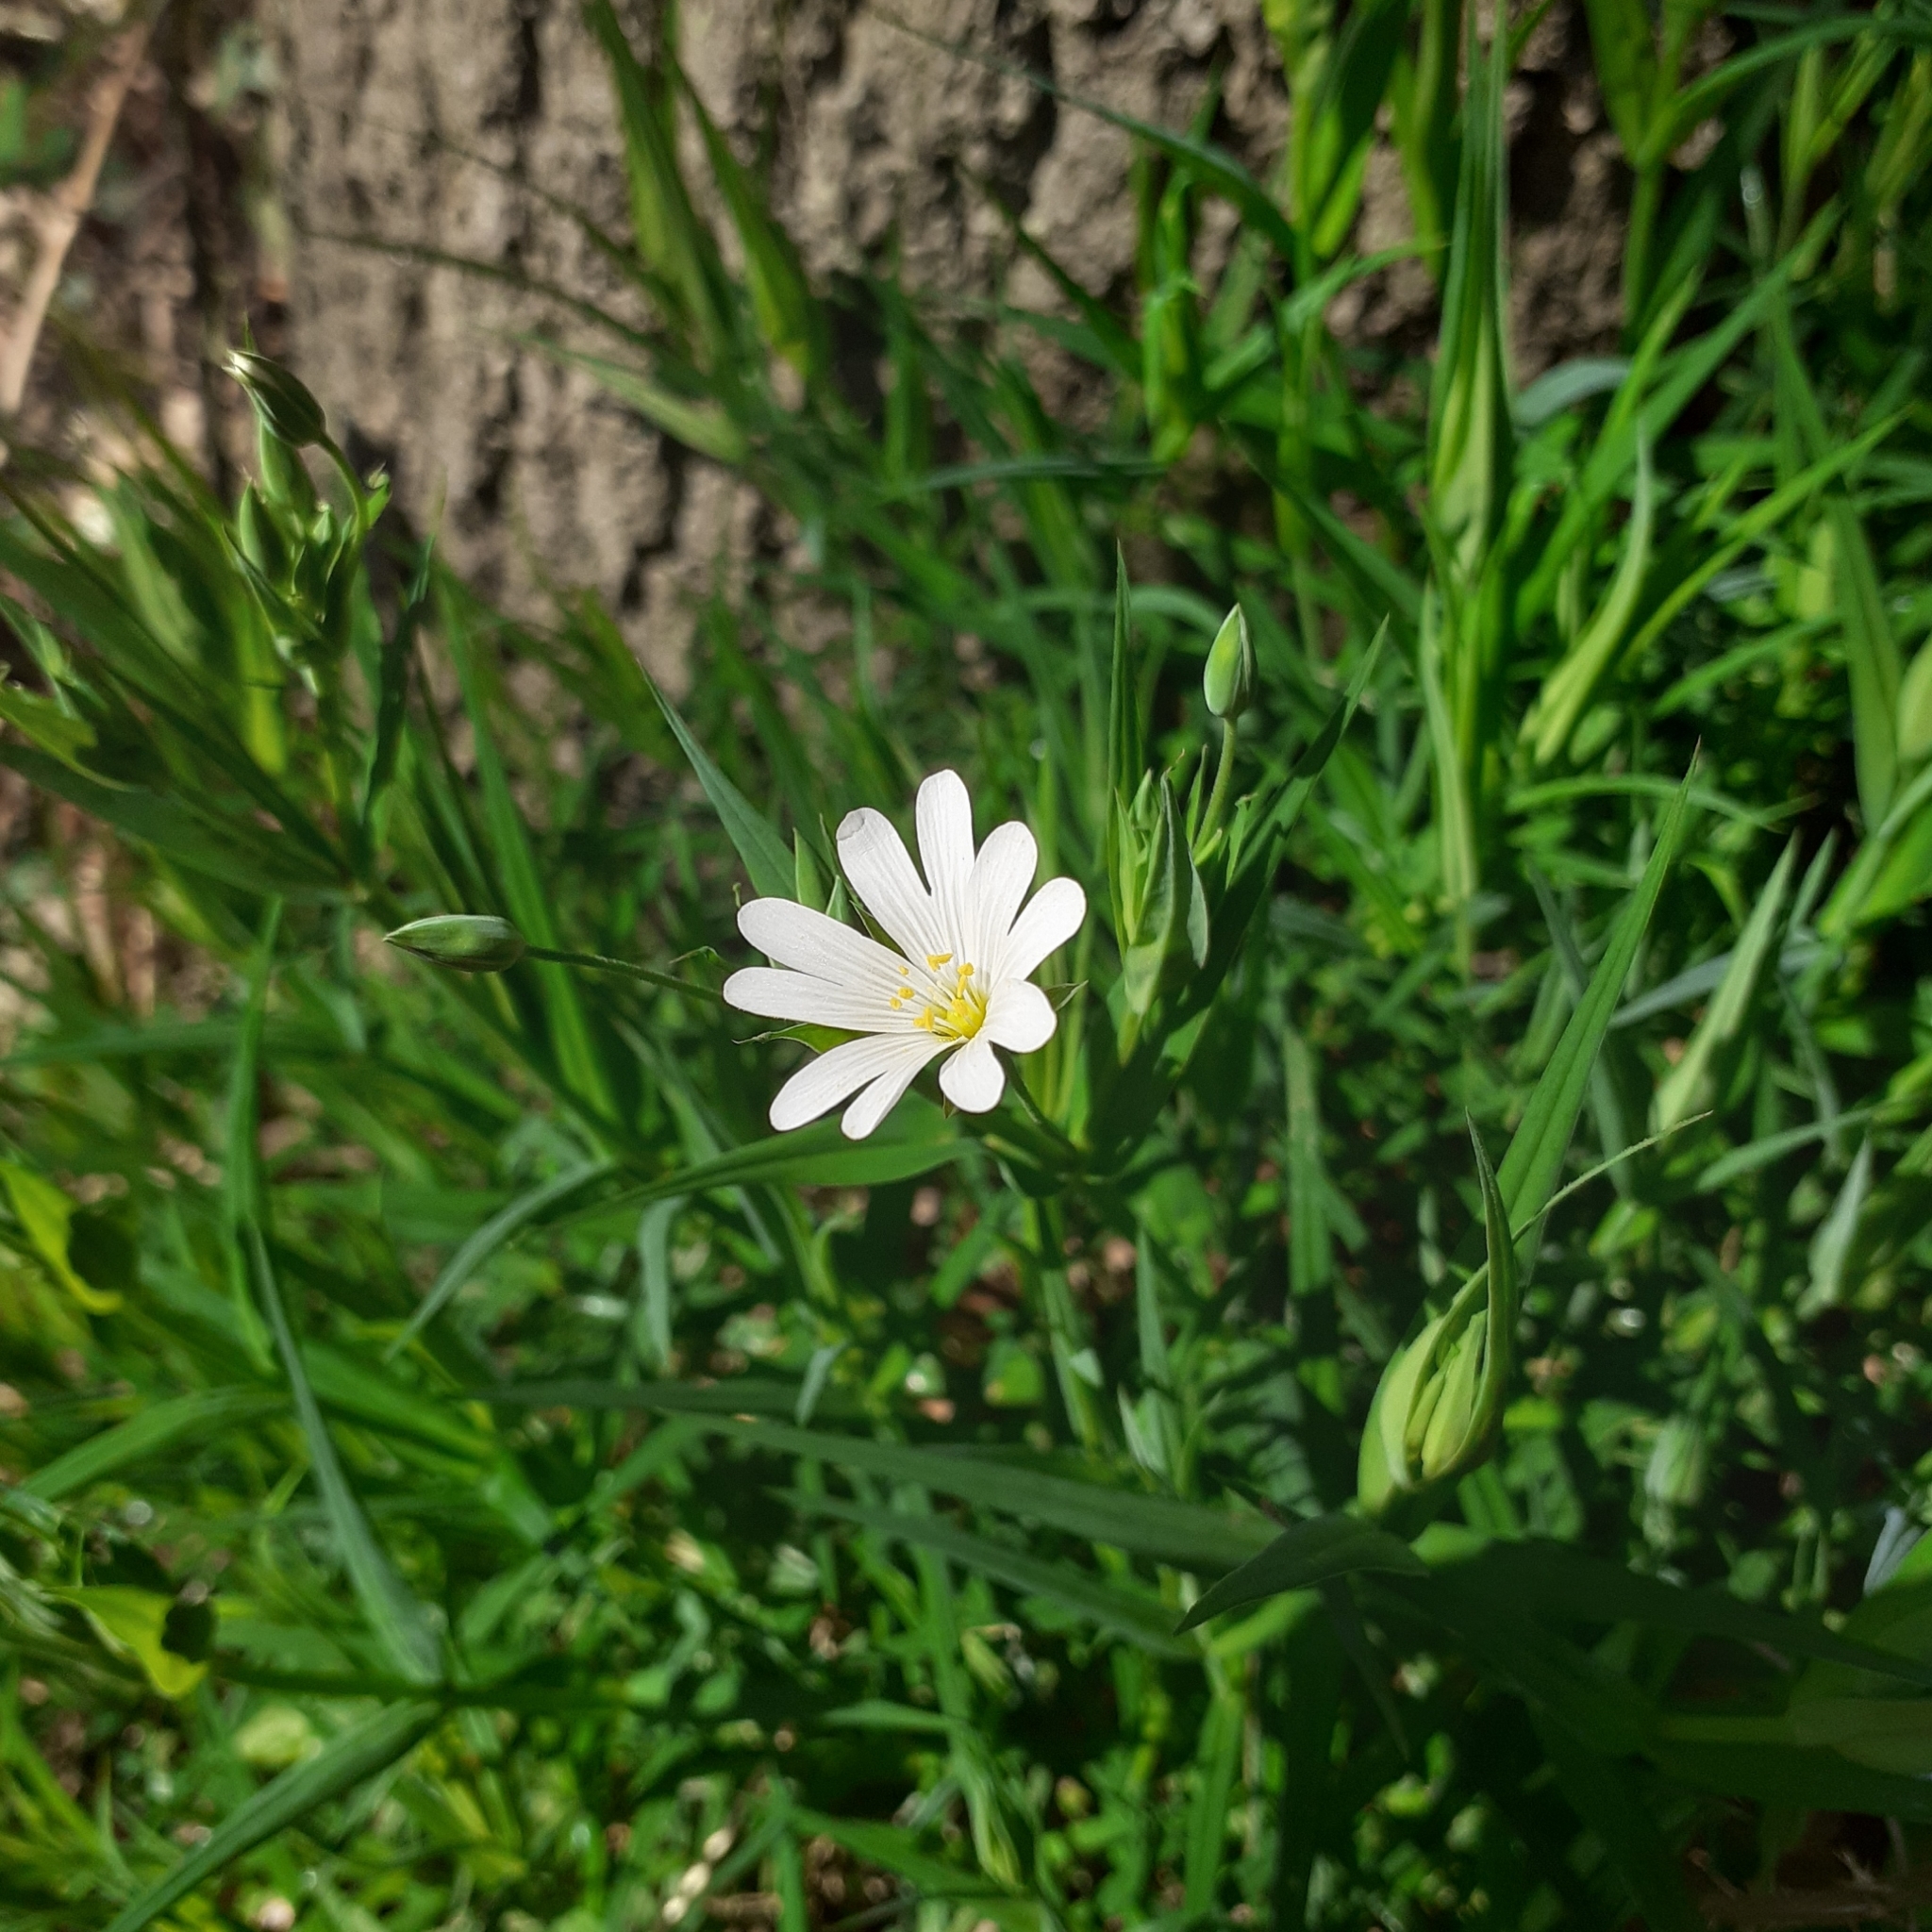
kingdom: Plantae
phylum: Tracheophyta
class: Magnoliopsida
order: Caryophyllales
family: Caryophyllaceae
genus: Rabelera
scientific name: Rabelera holostea
